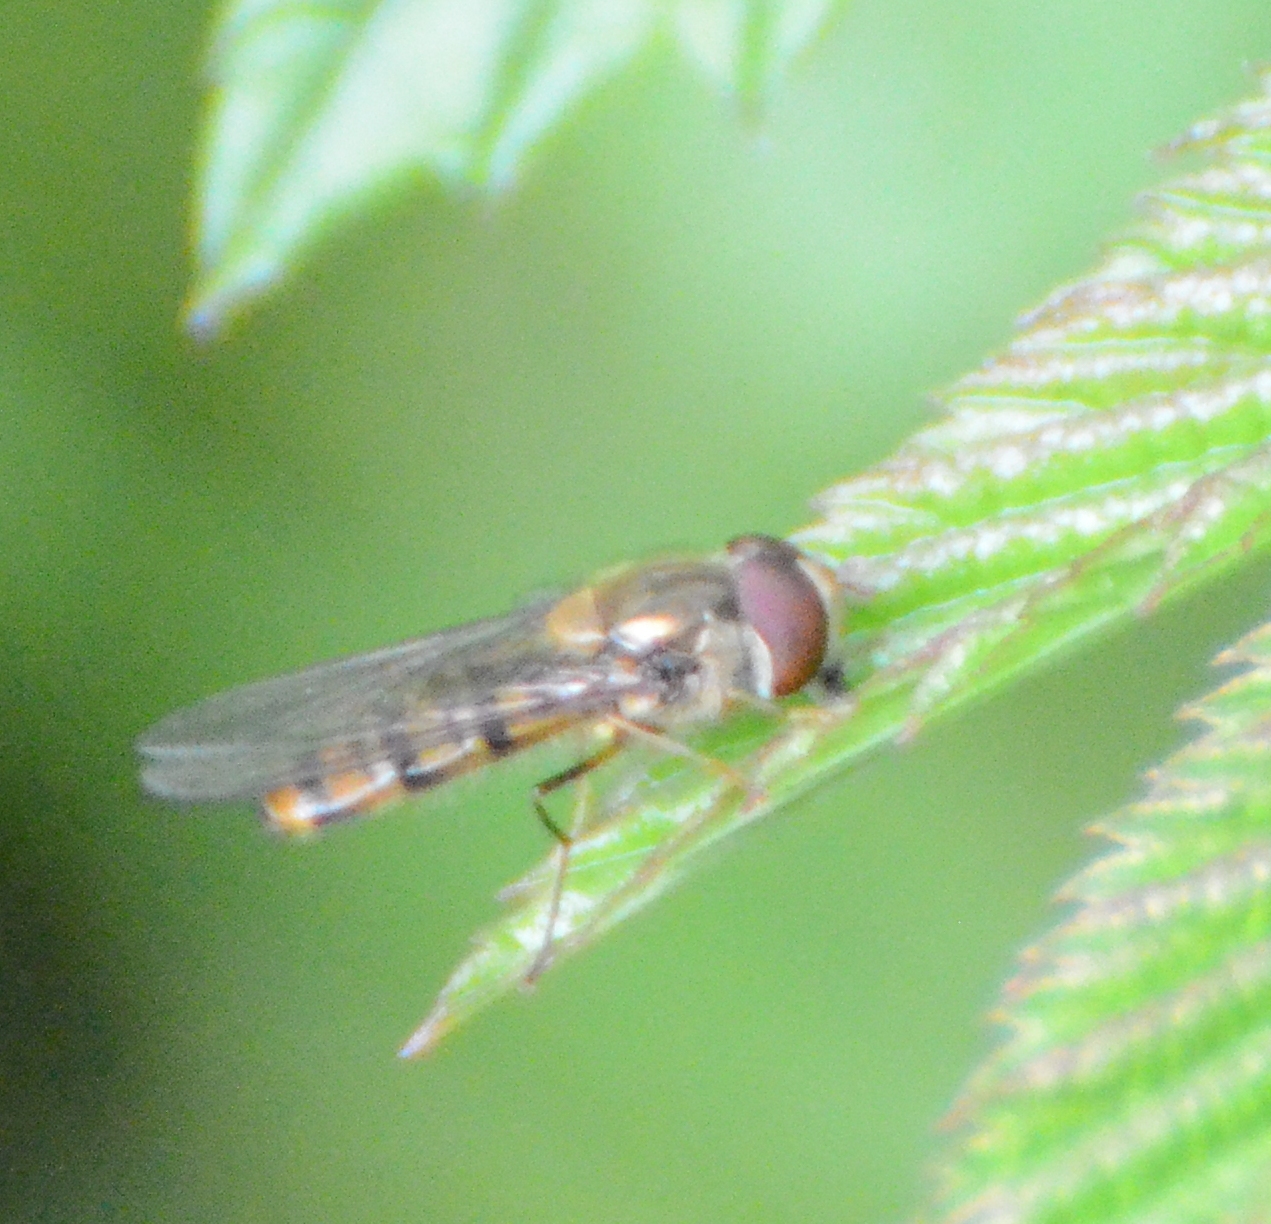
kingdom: Animalia
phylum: Arthropoda
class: Insecta
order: Diptera
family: Syrphidae
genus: Episyrphus
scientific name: Episyrphus balteatus
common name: Marmalade hoverfly
